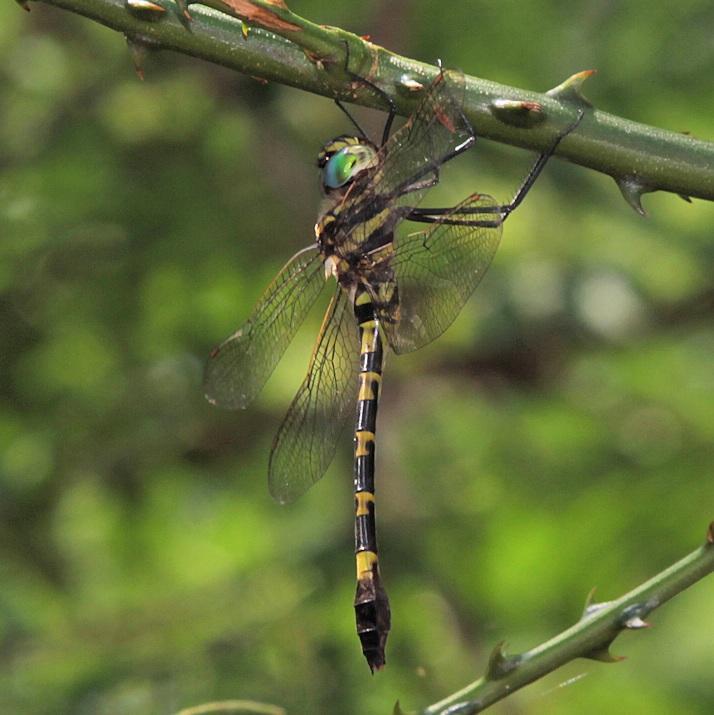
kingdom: Animalia
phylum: Arthropoda
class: Insecta
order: Odonata
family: Macromiidae
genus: Phyllomacromia
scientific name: Phyllomacromia picta
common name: Darting cruiser
